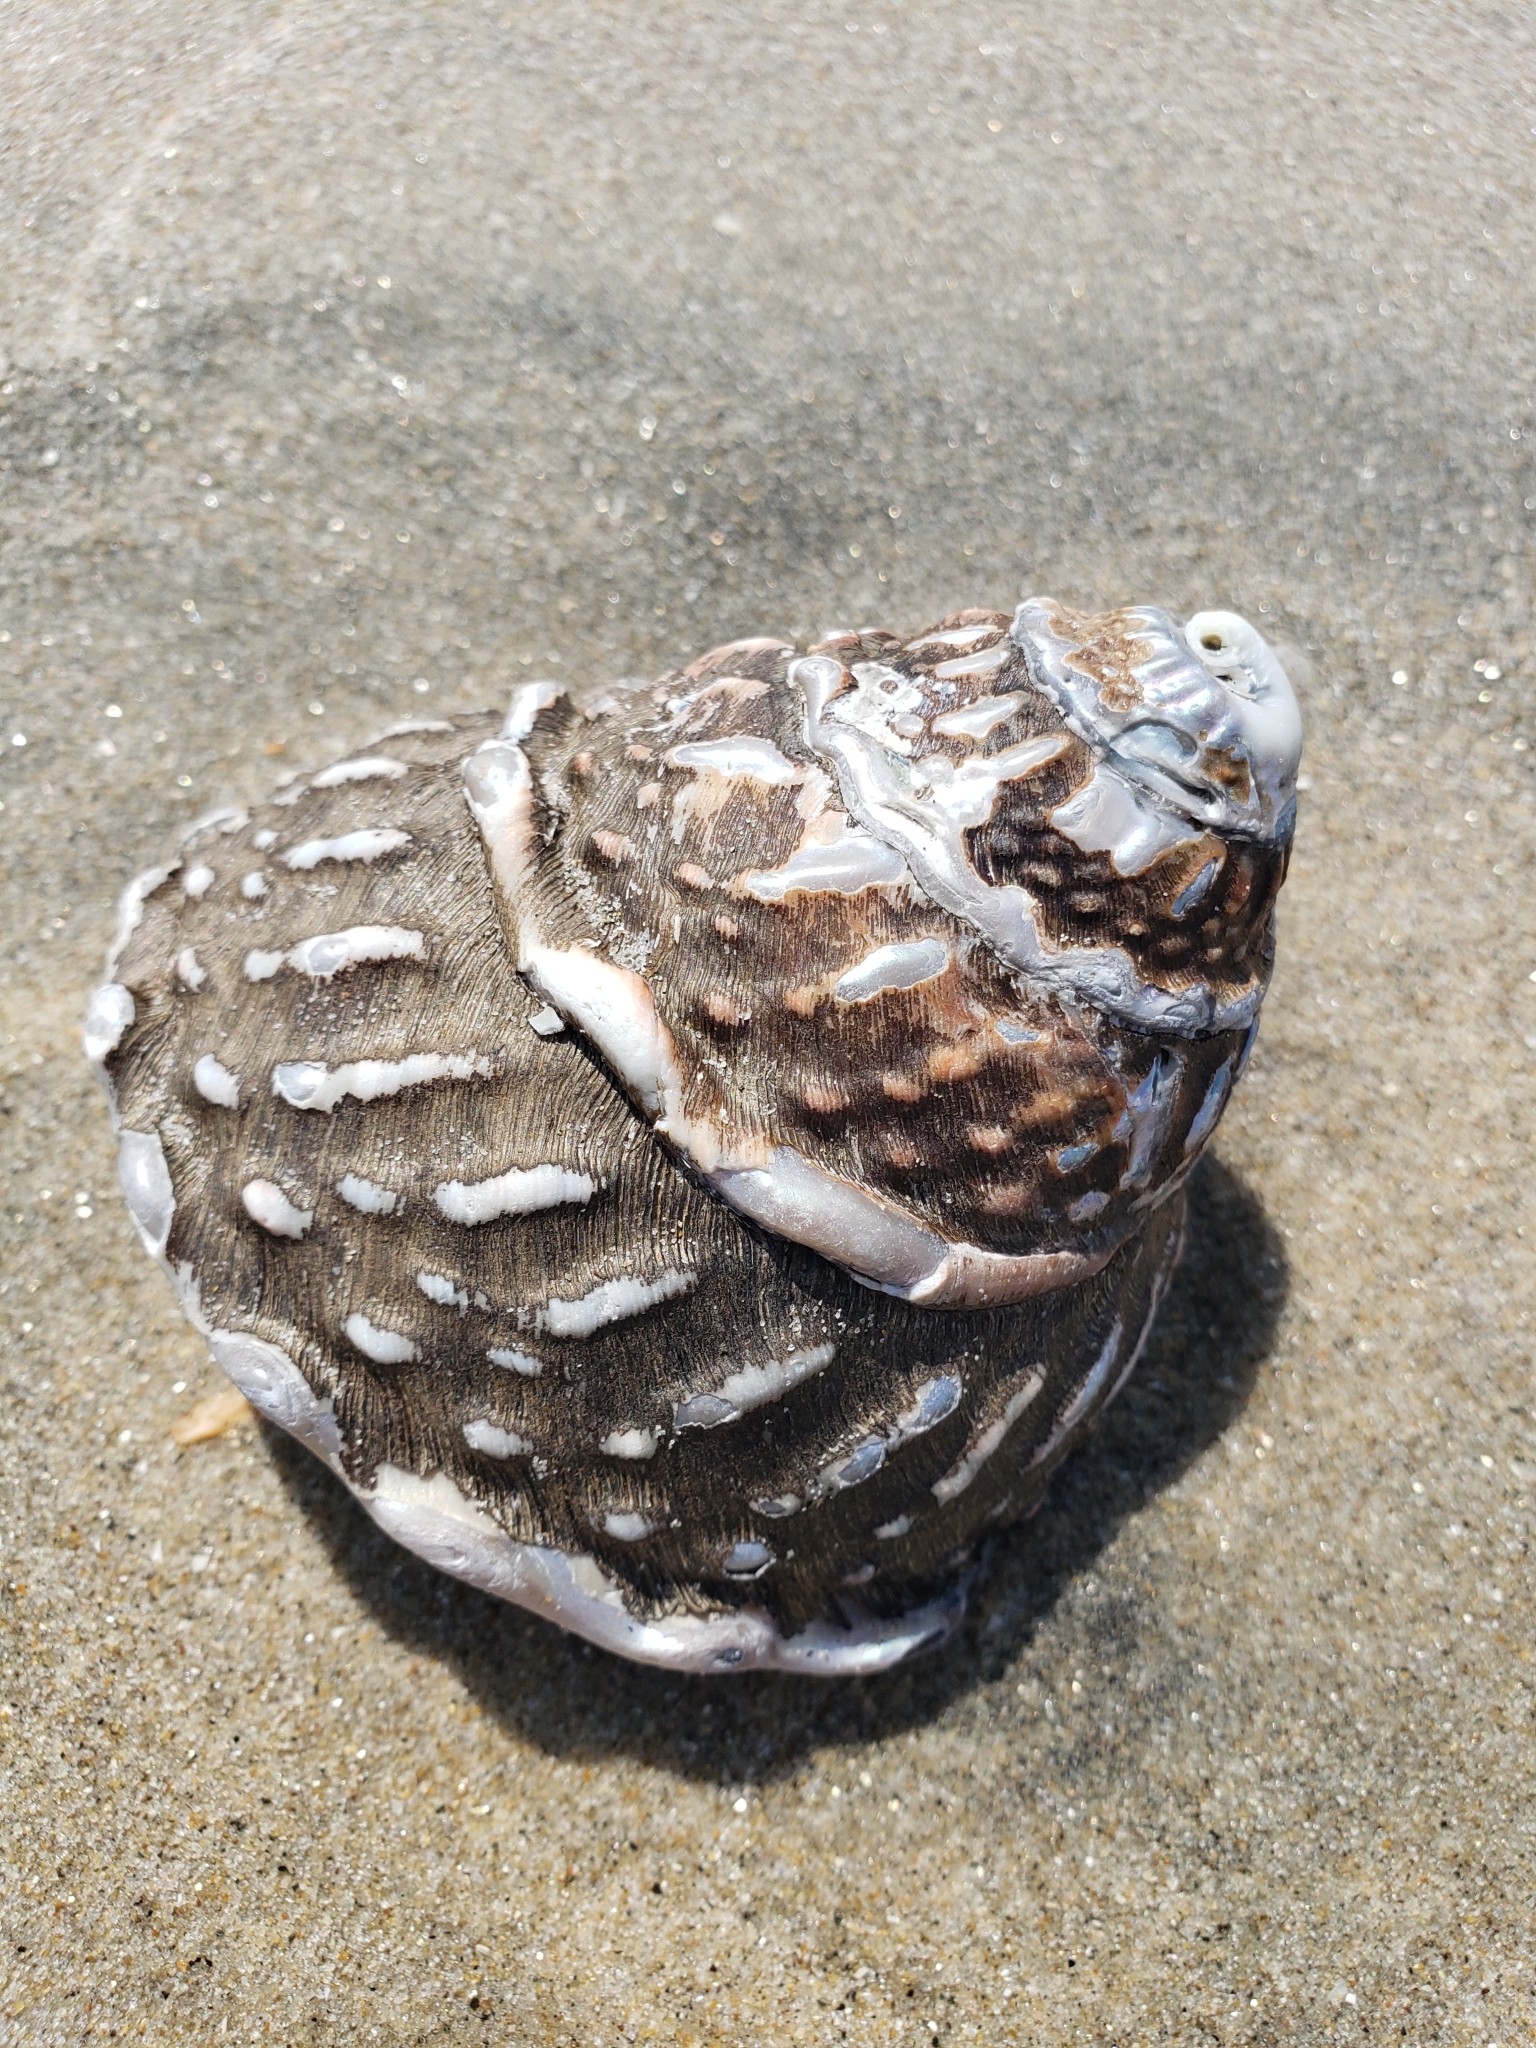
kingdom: Animalia
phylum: Mollusca
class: Gastropoda
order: Trochida
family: Turbinidae
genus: Megastraea
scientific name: Megastraea undosa
